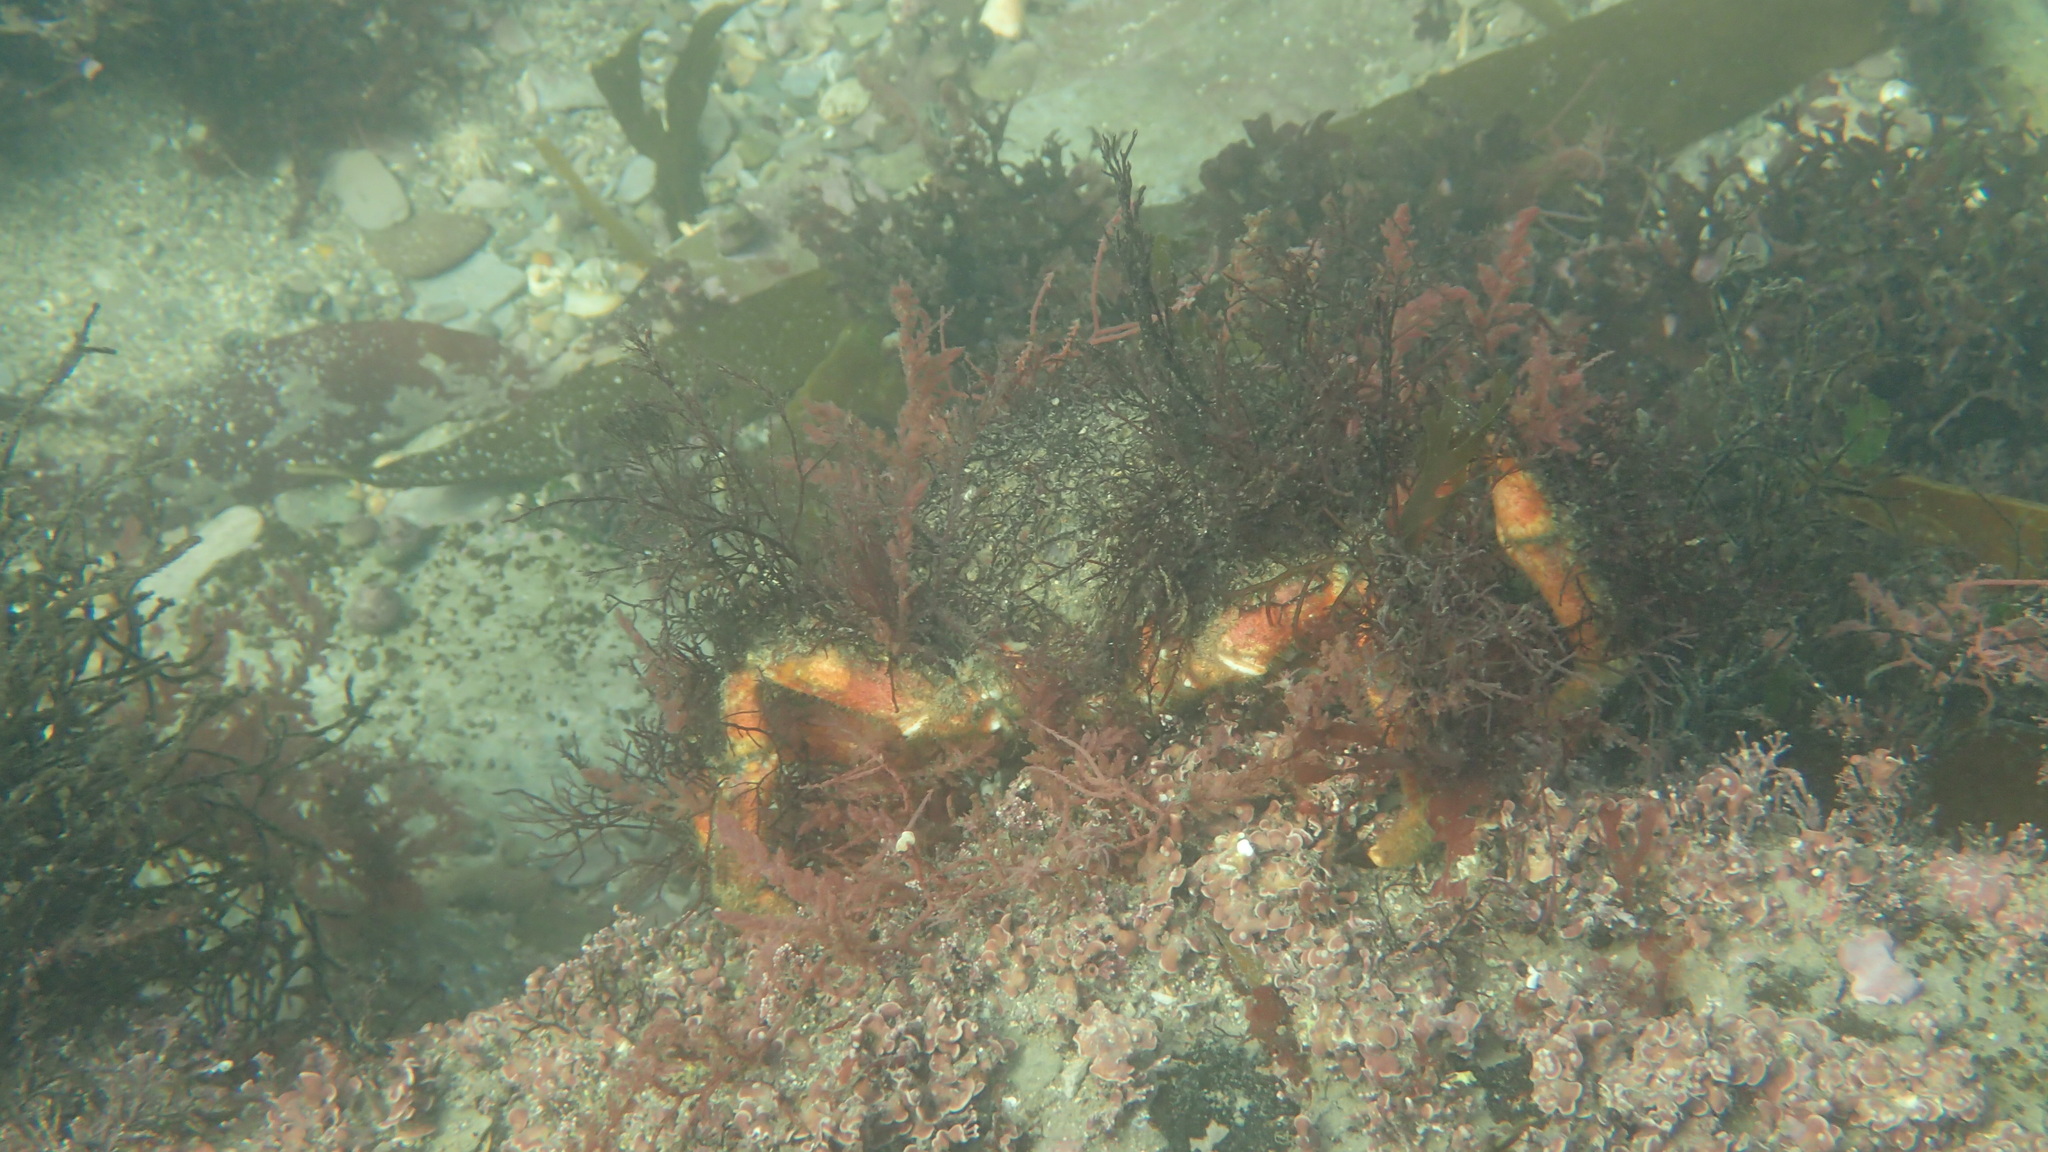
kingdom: Animalia
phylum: Arthropoda
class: Malacostraca
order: Decapoda
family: Majidae
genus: Maja
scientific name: Maja brachydactyla
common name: Common spider crab
